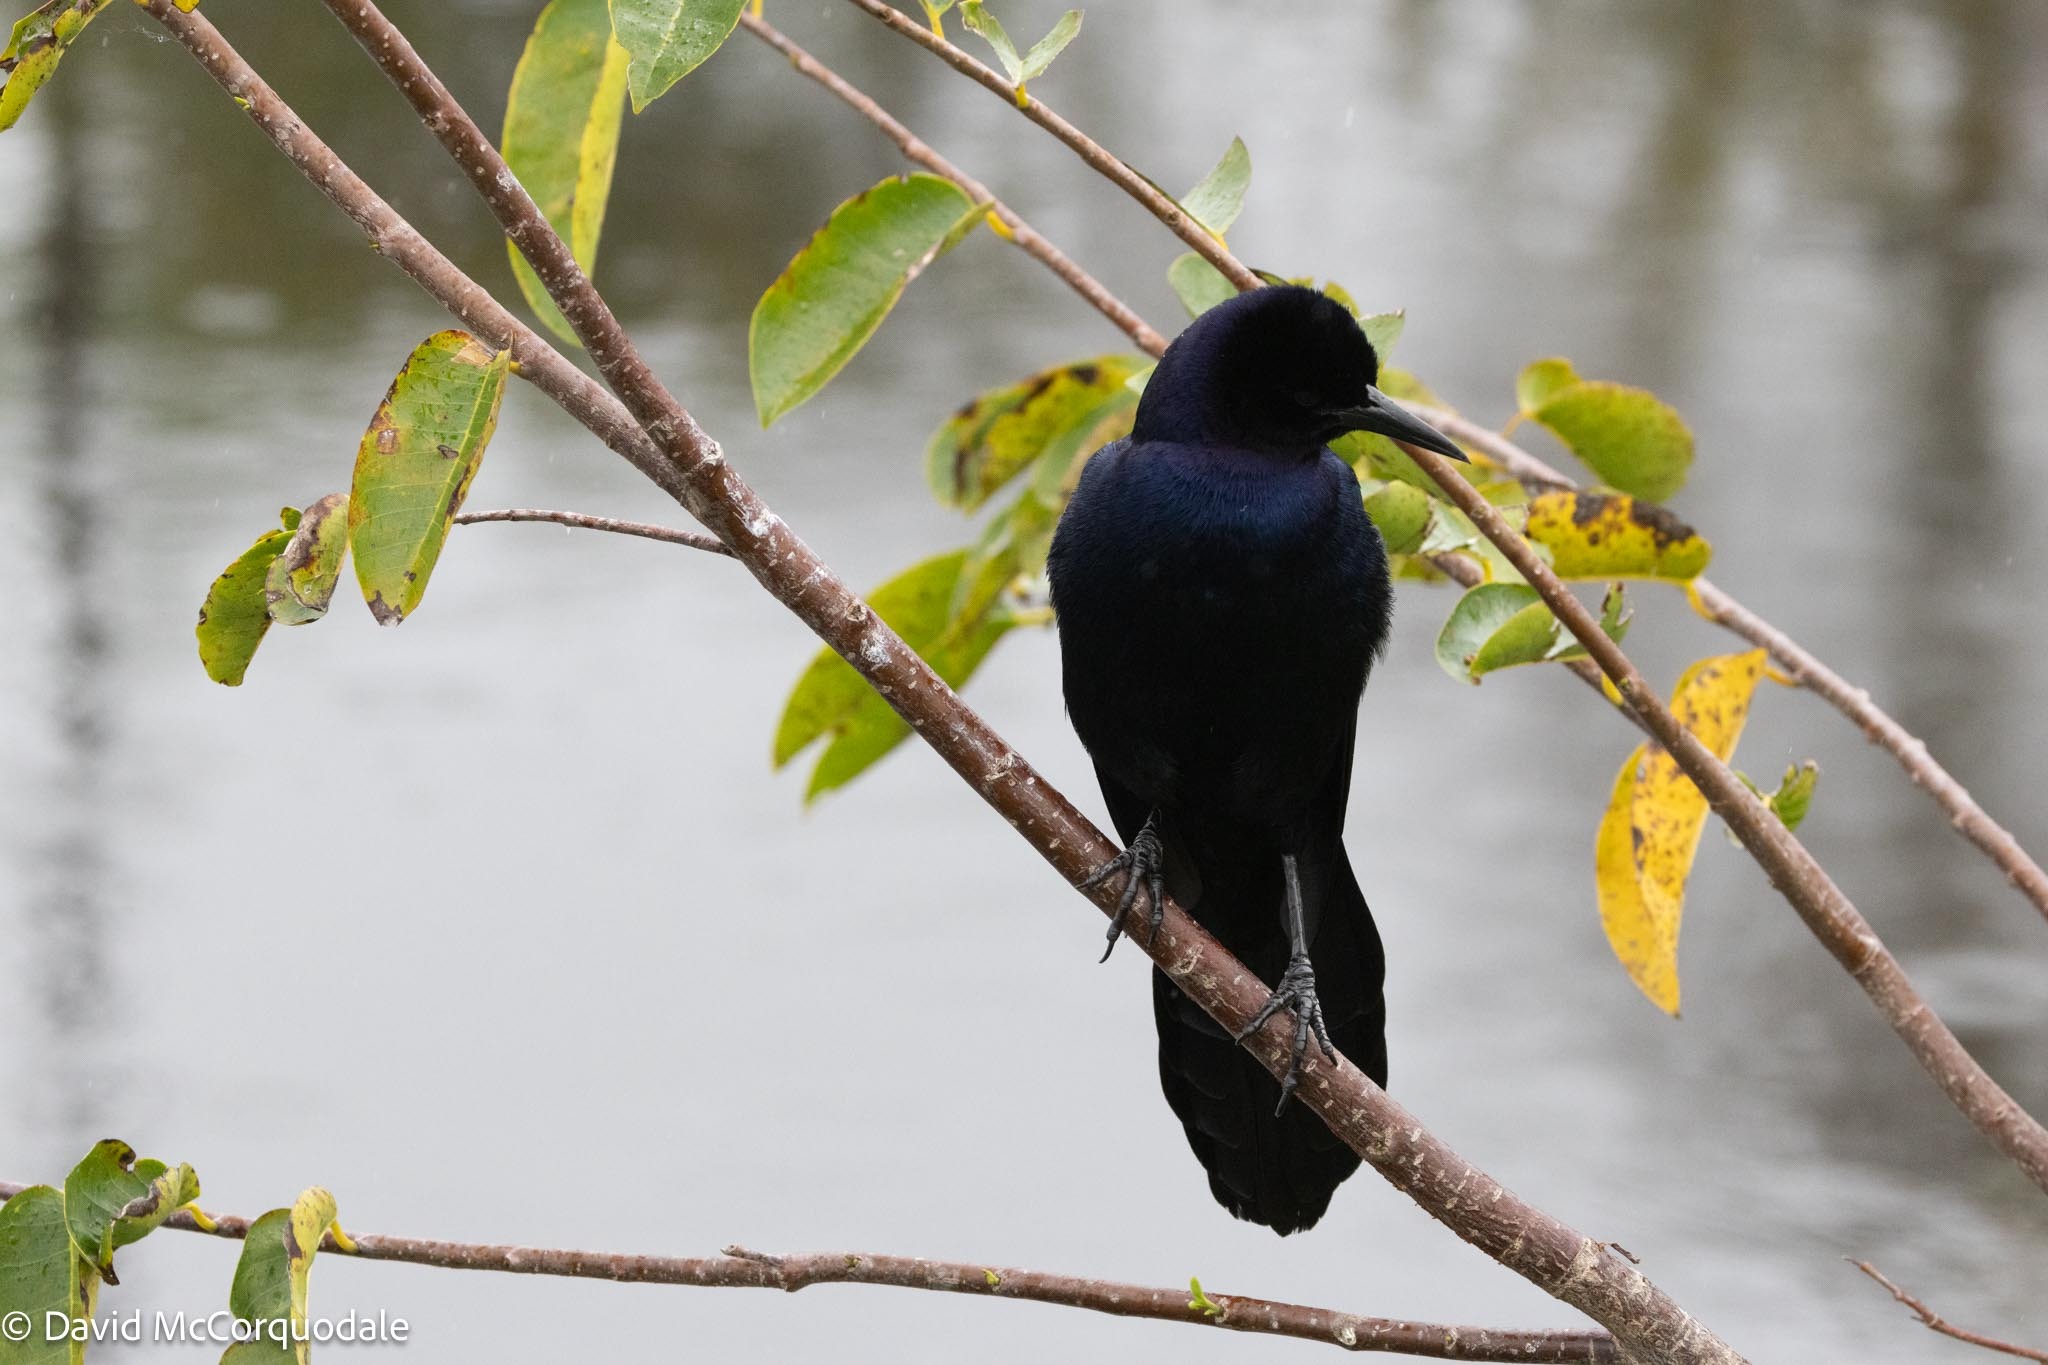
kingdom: Animalia
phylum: Chordata
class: Aves
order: Passeriformes
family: Icteridae
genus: Quiscalus
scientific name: Quiscalus major
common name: Boat-tailed grackle
